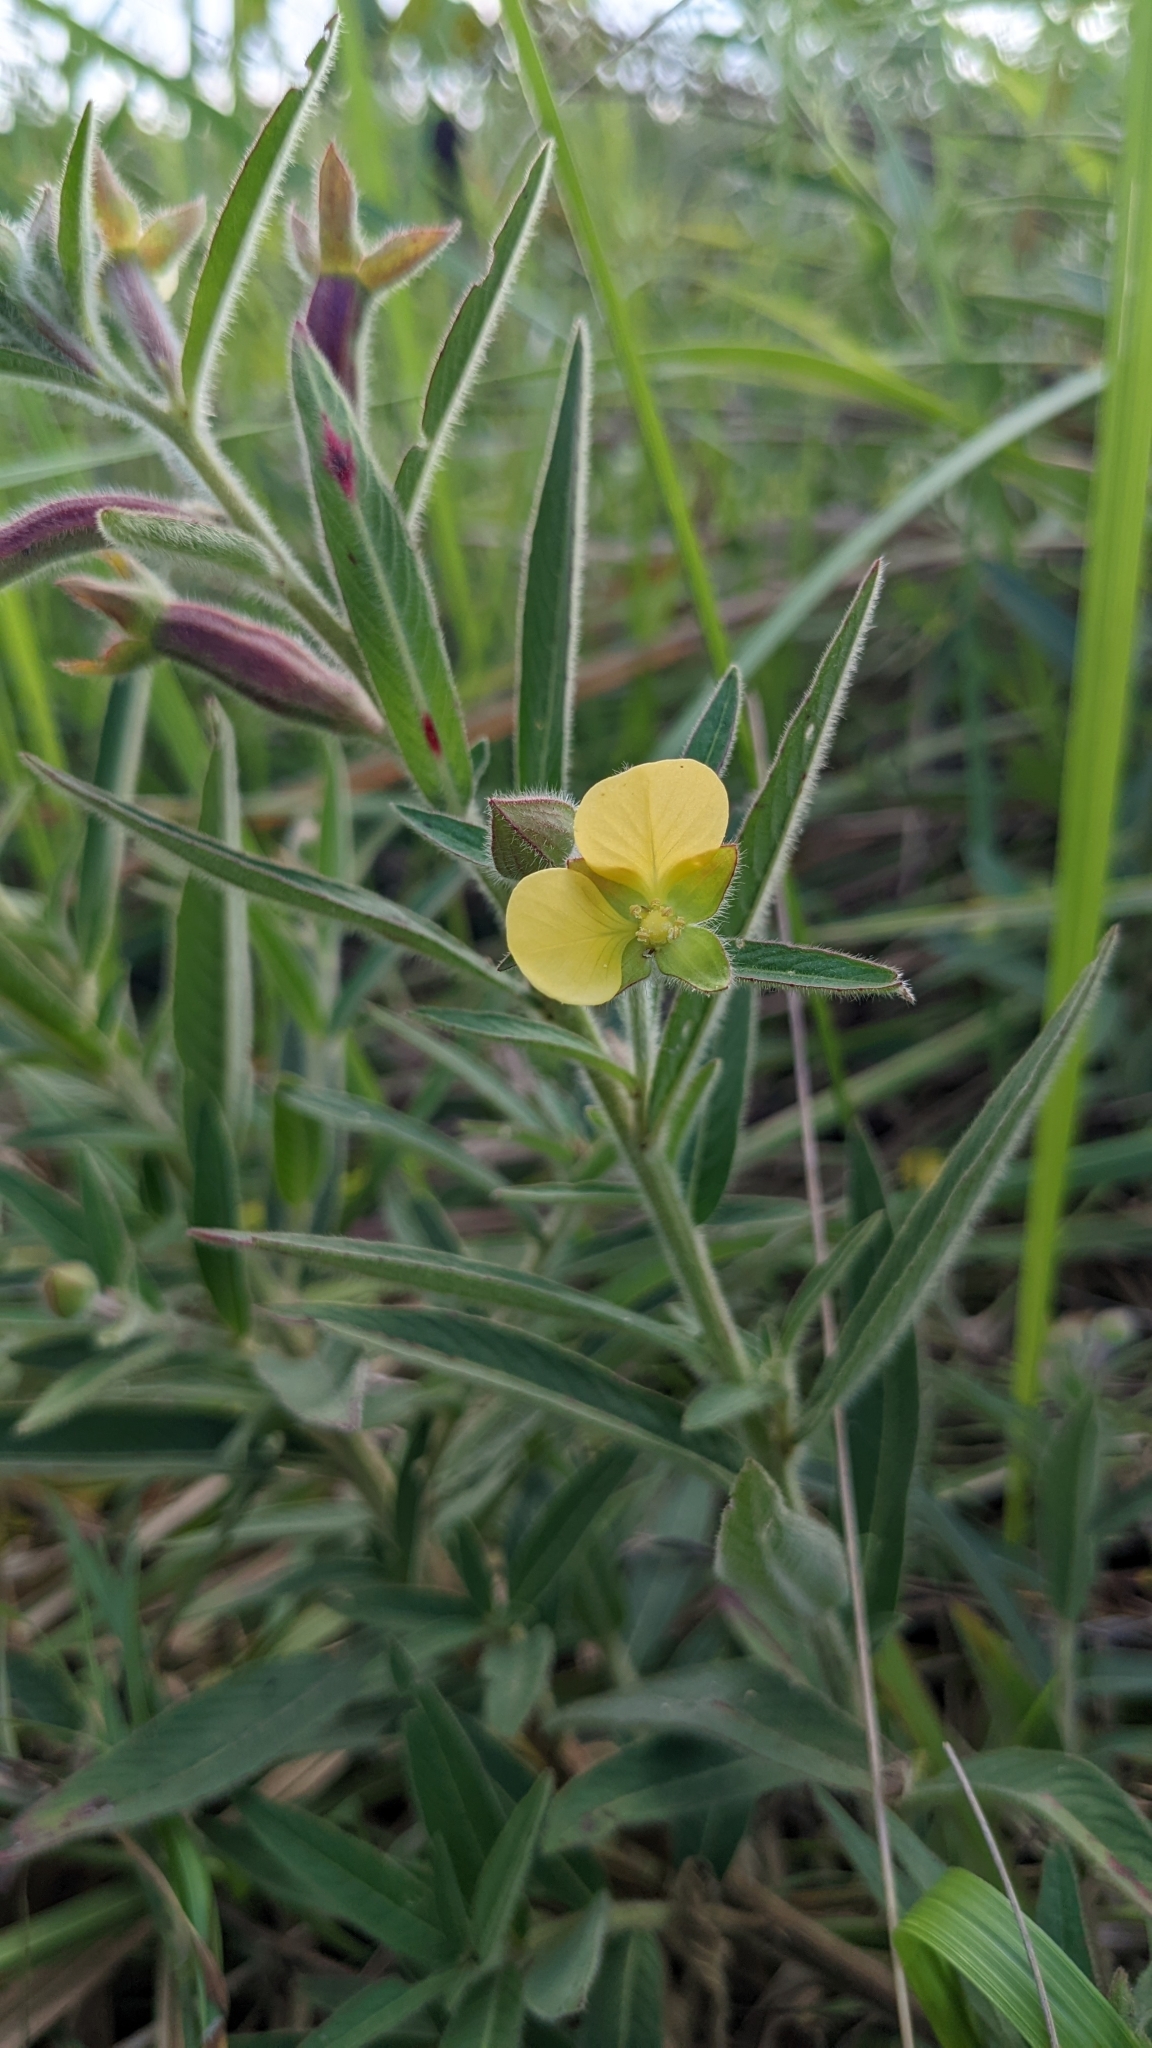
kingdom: Plantae
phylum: Tracheophyta
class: Magnoliopsida
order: Myrtales
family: Onagraceae
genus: Ludwigia
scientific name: Ludwigia octovalvis
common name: Water-primrose
